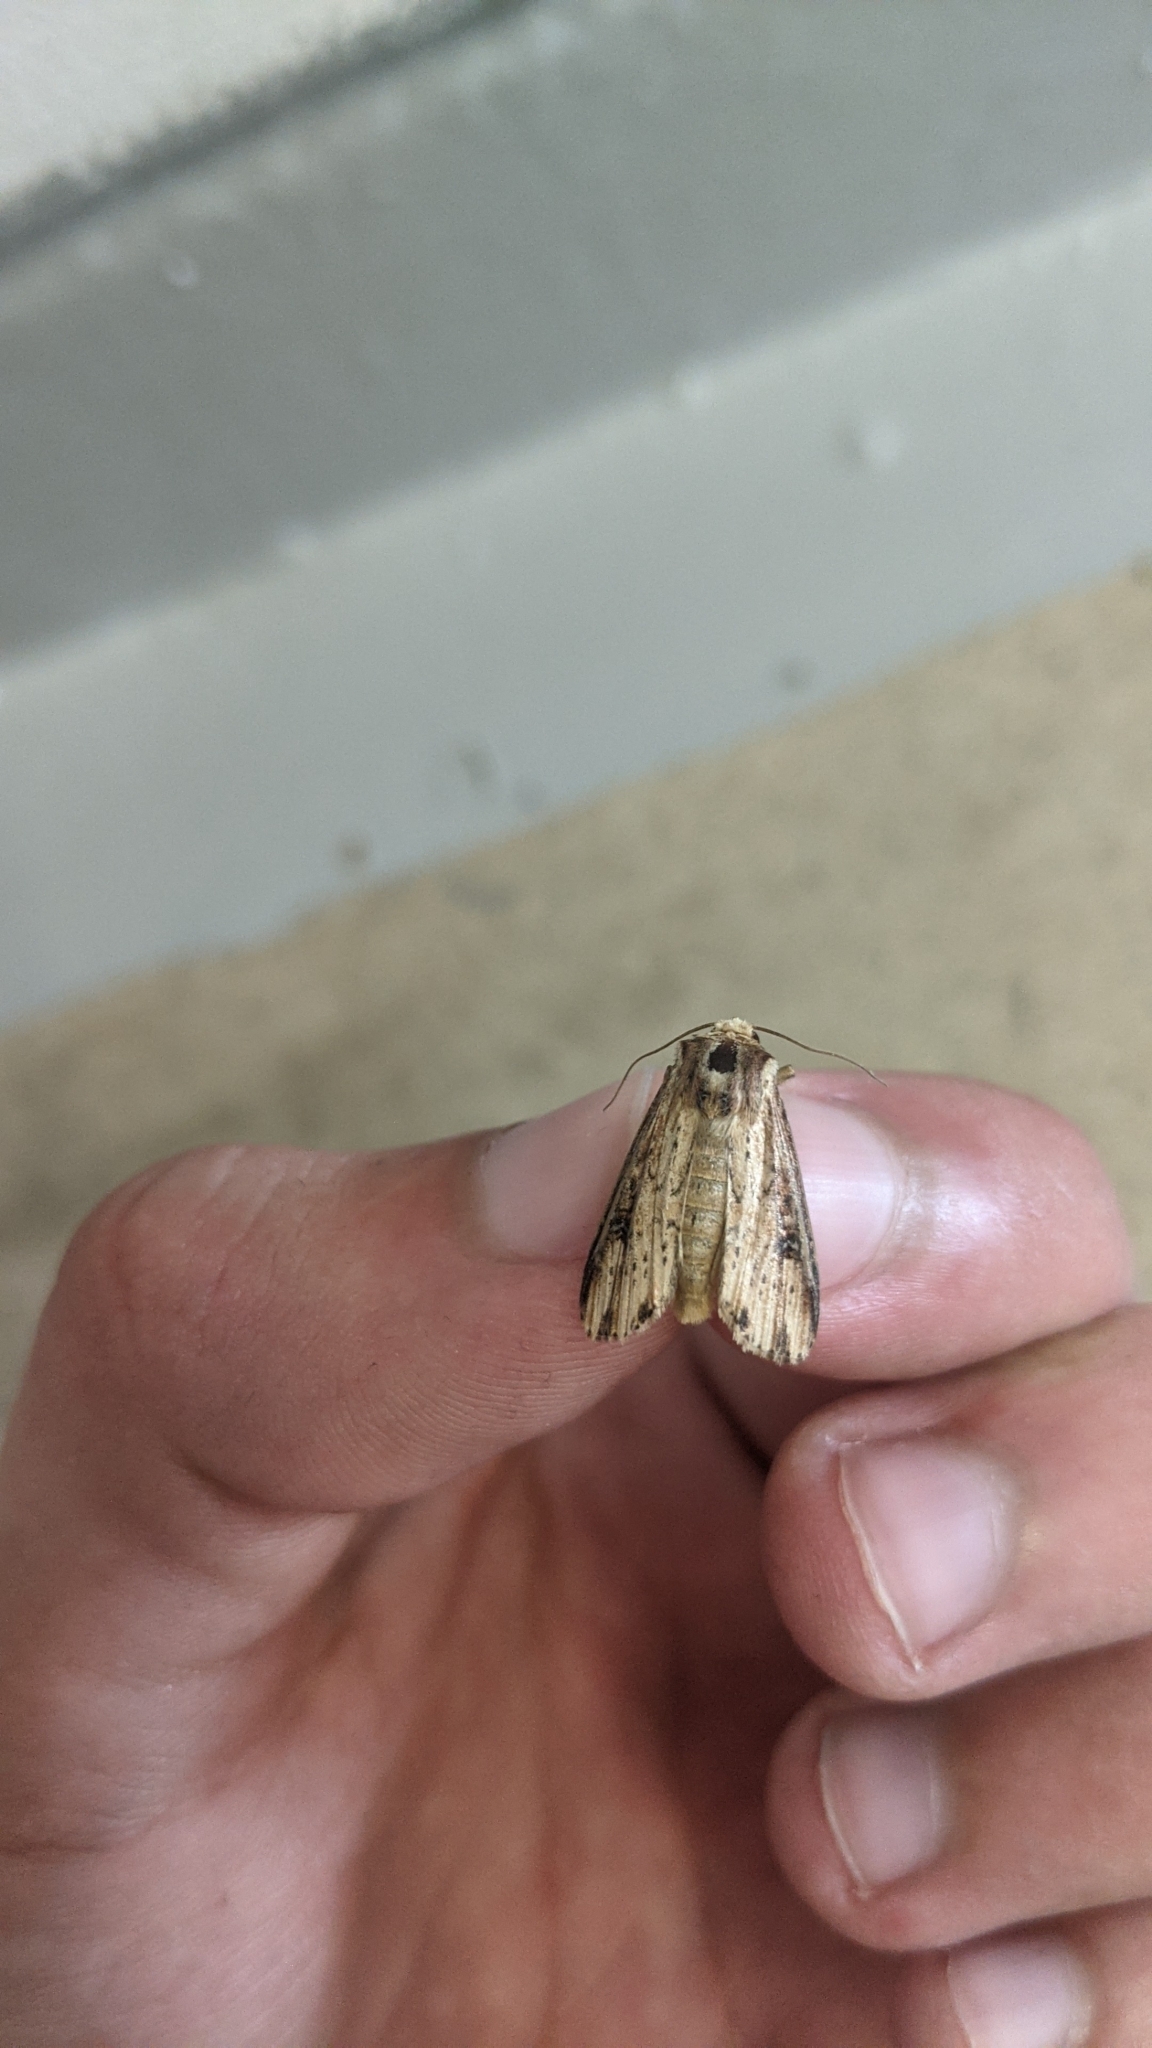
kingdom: Animalia
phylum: Arthropoda
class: Insecta
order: Lepidoptera
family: Noctuidae
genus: Axylia
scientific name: Axylia putris
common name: Flame
